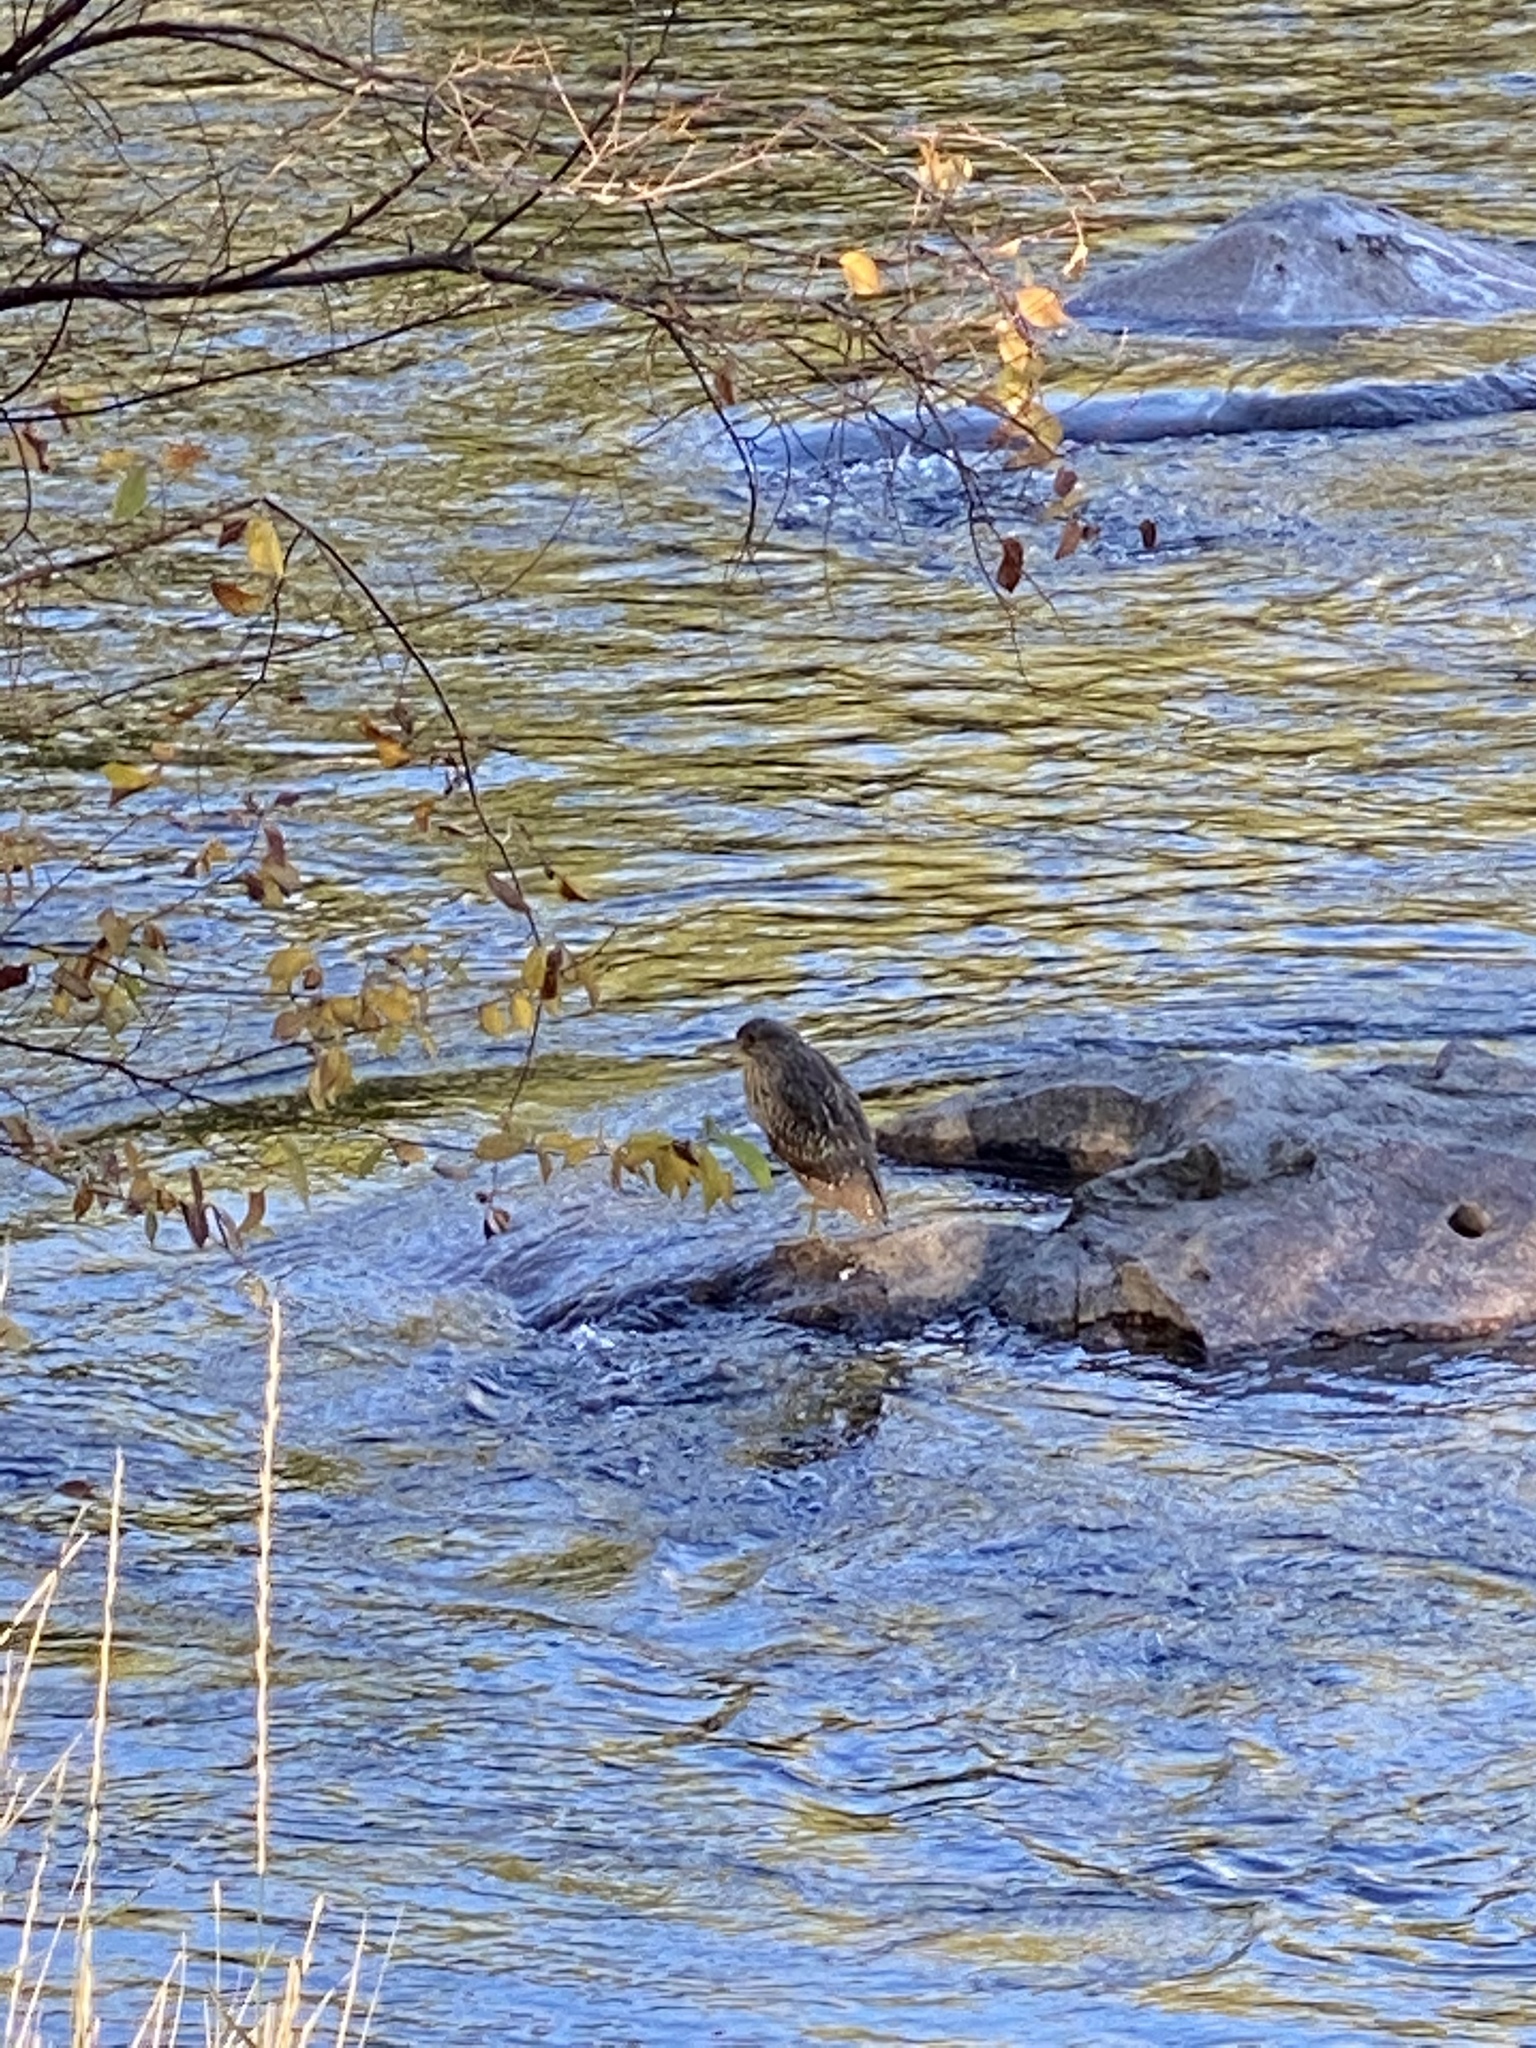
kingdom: Animalia
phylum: Chordata
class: Aves
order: Pelecaniformes
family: Ardeidae
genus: Nycticorax
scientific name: Nycticorax nycticorax
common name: Black-crowned night heron
